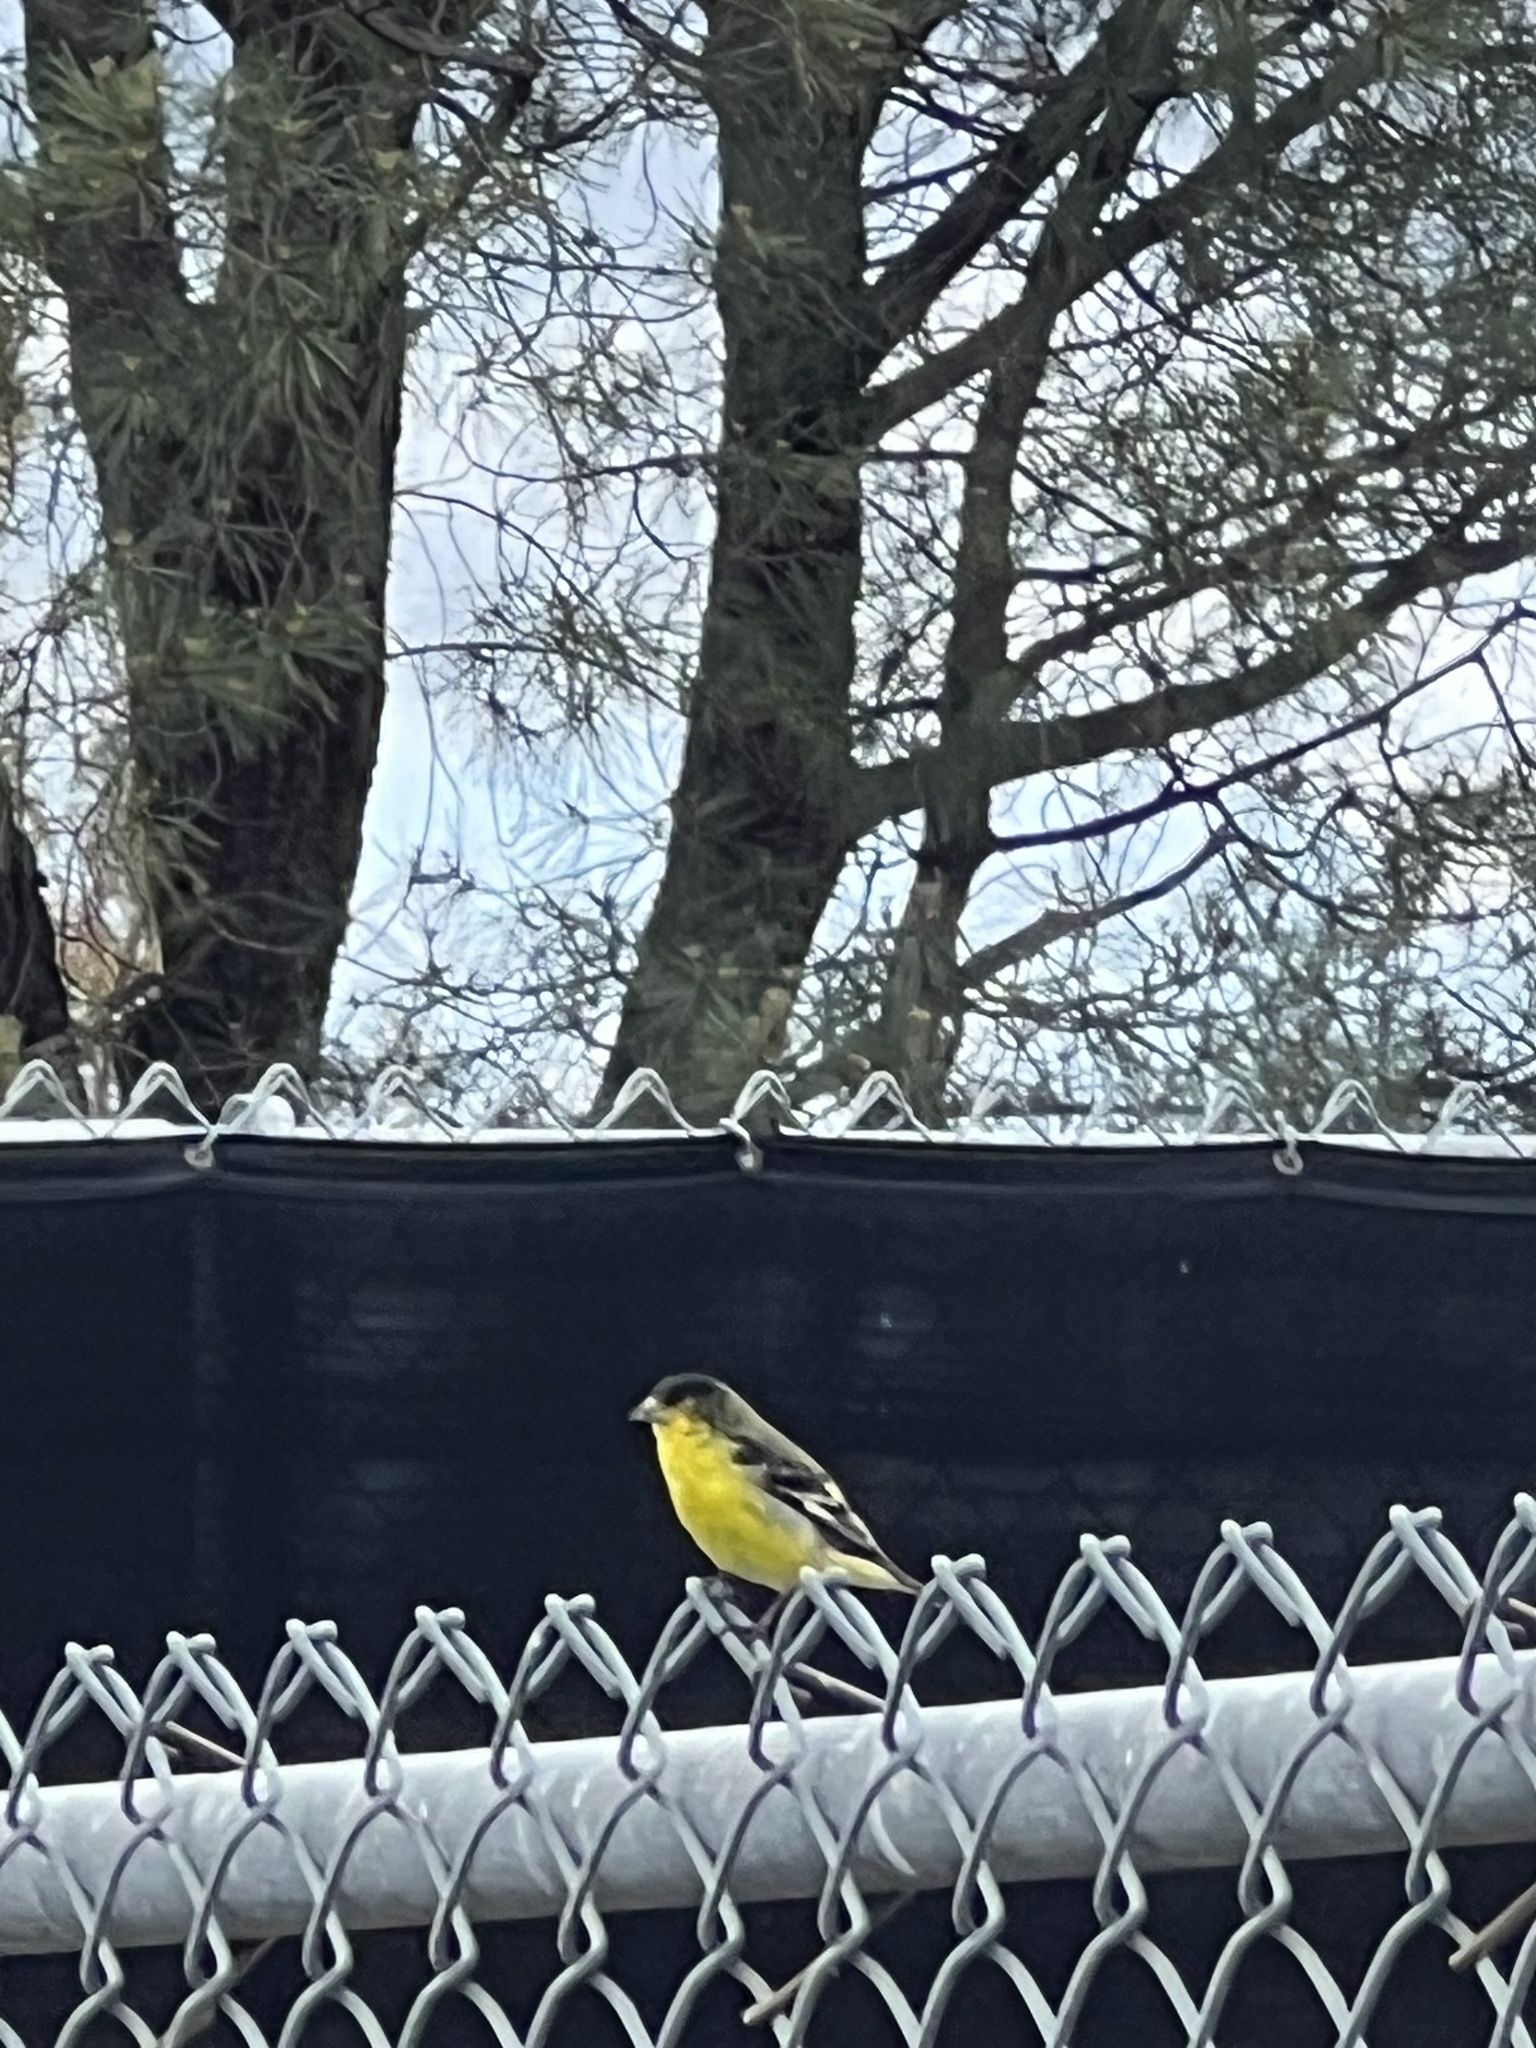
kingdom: Animalia
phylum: Chordata
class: Aves
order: Passeriformes
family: Fringillidae
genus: Spinus
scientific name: Spinus psaltria
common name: Lesser goldfinch
